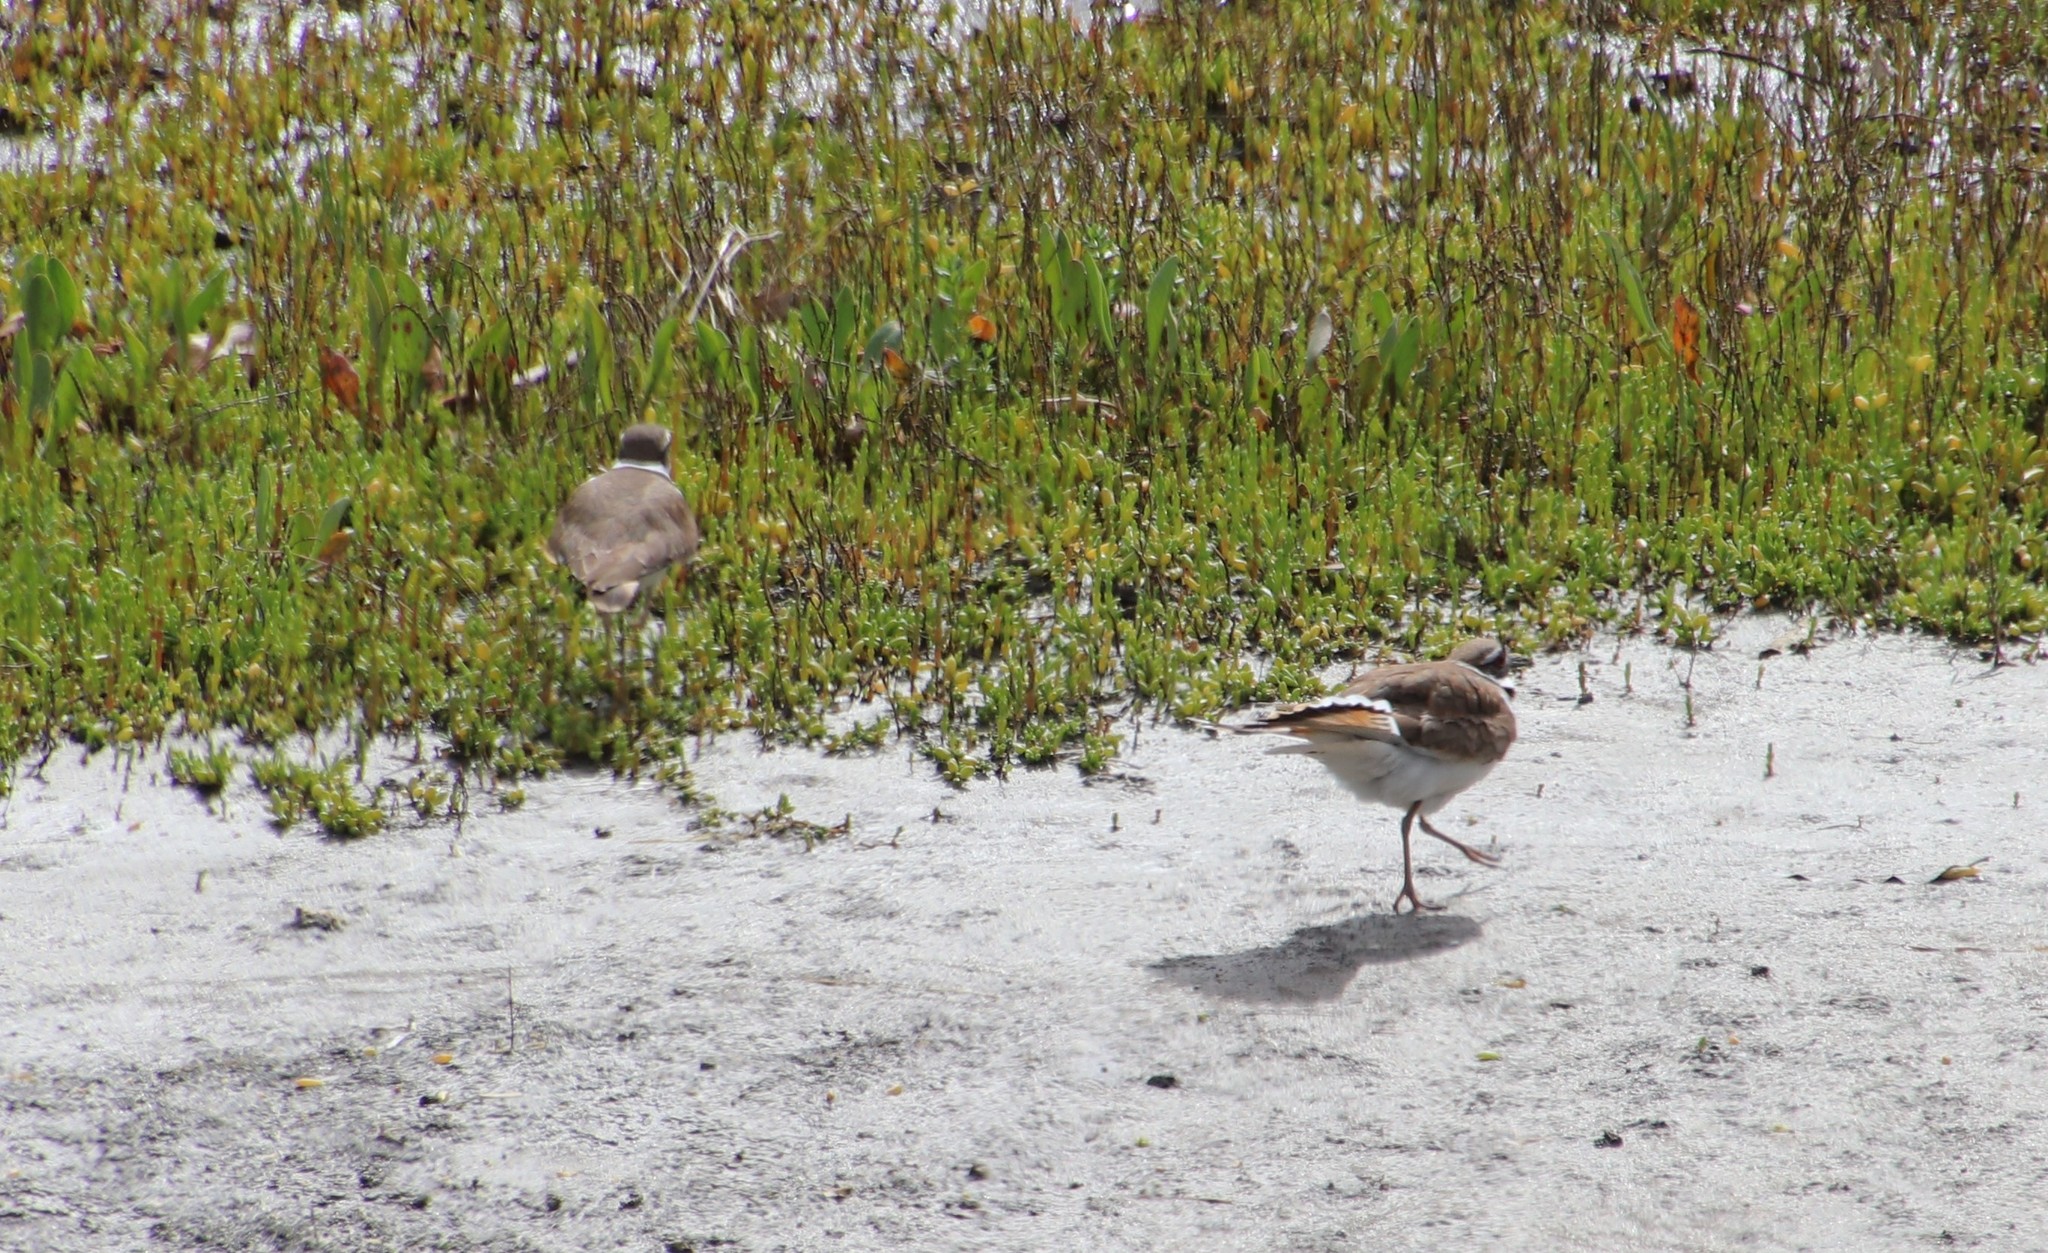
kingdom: Animalia
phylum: Chordata
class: Aves
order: Charadriiformes
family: Charadriidae
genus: Charadrius
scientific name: Charadrius vociferus
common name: Killdeer
